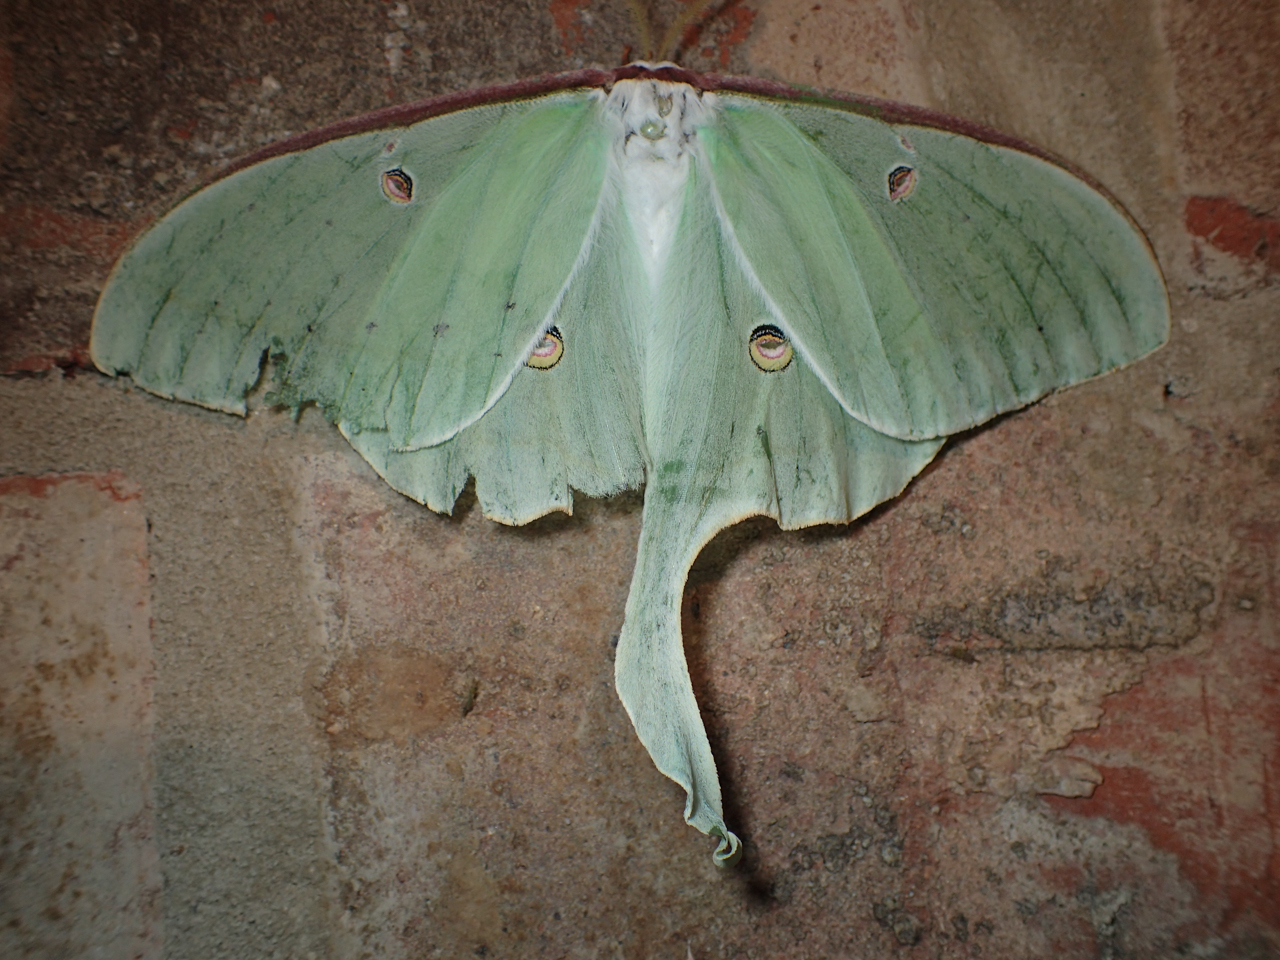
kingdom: Animalia
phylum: Arthropoda
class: Insecta
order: Lepidoptera
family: Saturniidae
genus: Actias
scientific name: Actias luna
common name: Luna moth
